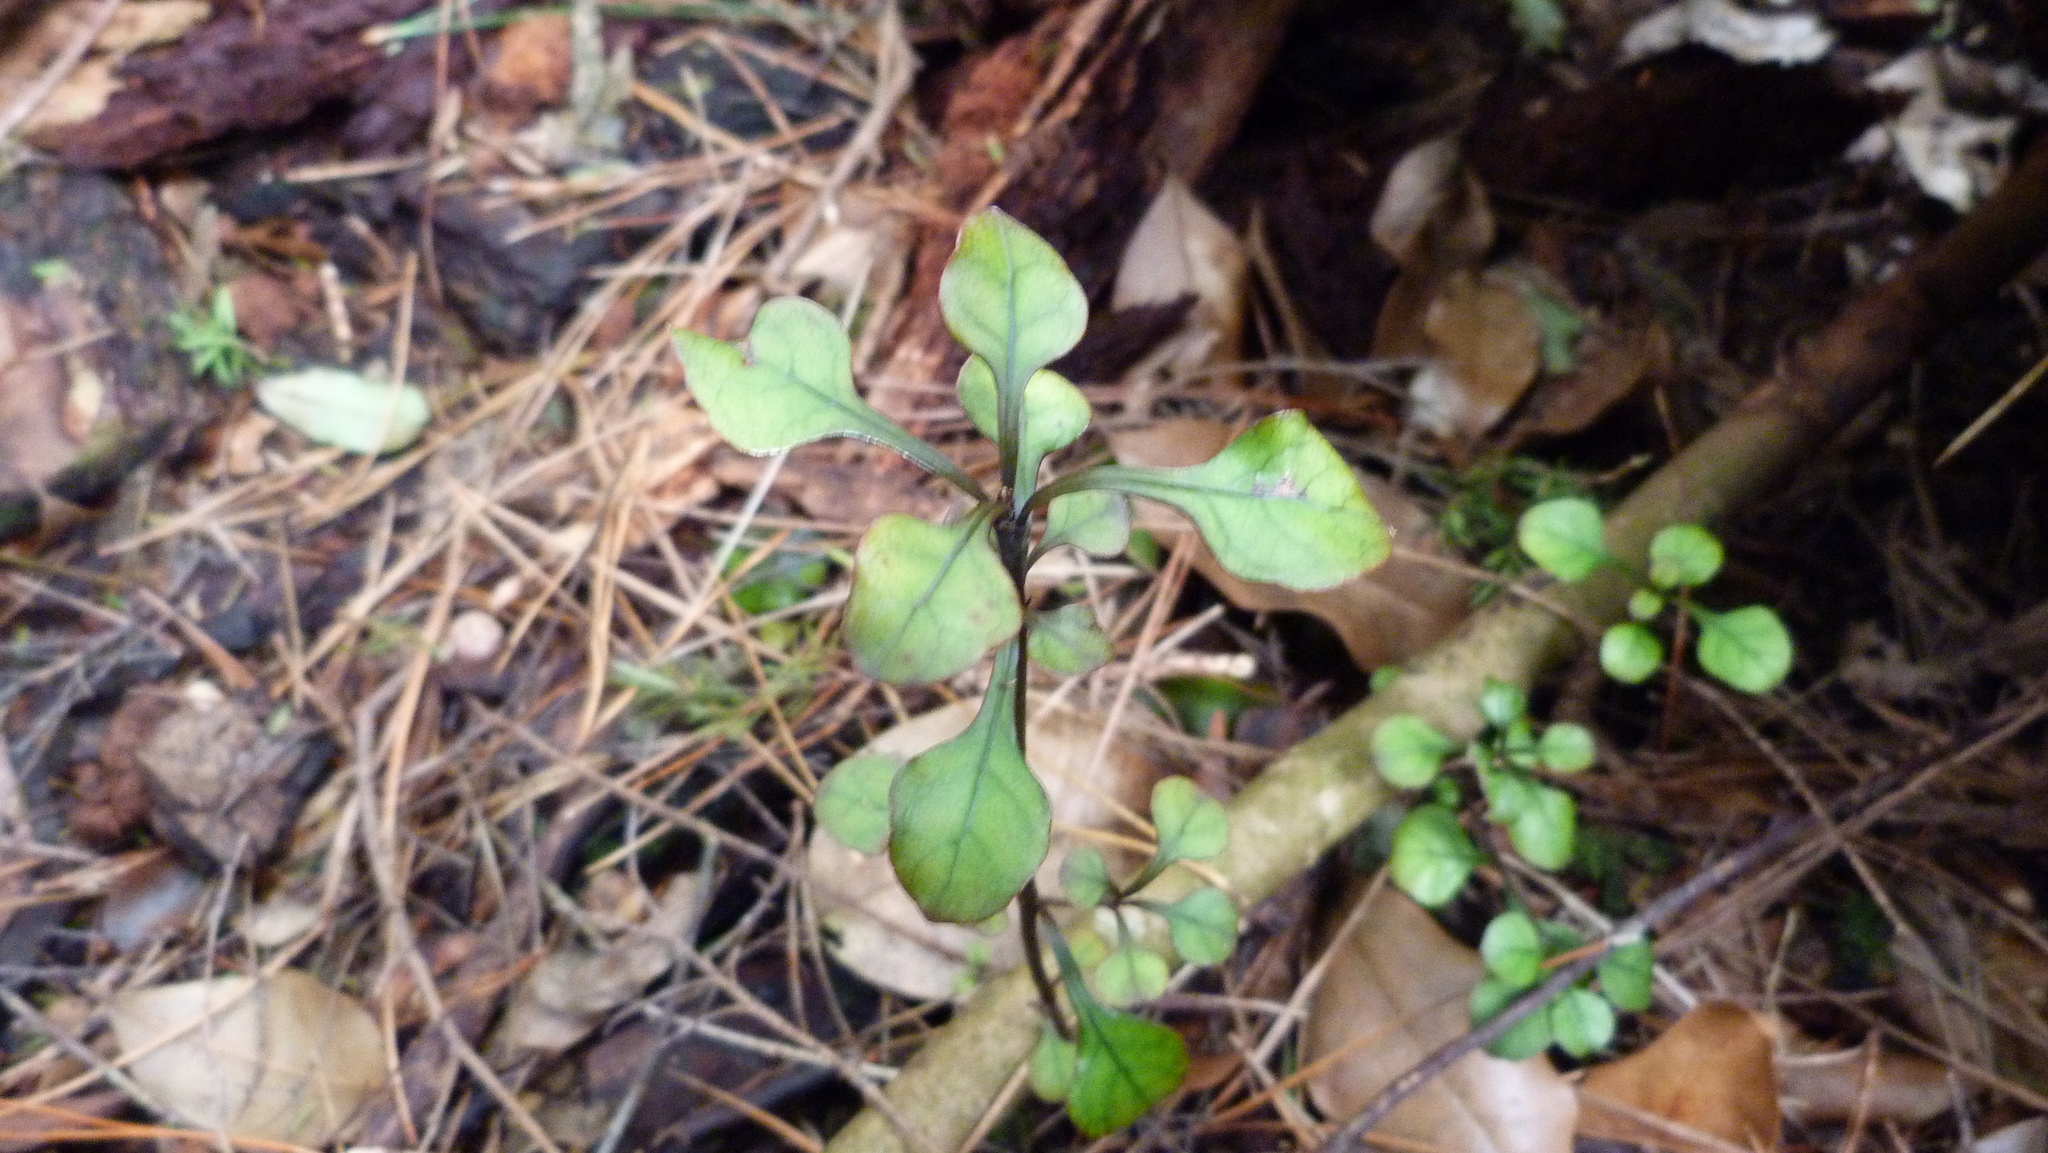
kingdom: Plantae
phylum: Tracheophyta
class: Magnoliopsida
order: Gentianales
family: Rubiaceae
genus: Coprosma
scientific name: Coprosma arborea
